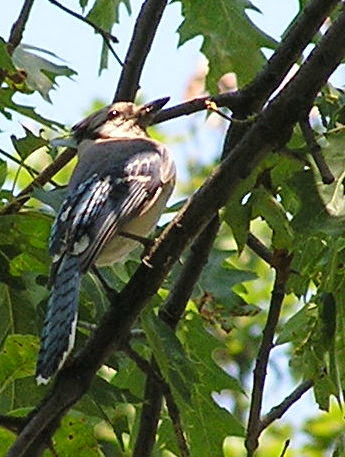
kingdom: Animalia
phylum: Chordata
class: Aves
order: Passeriformes
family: Corvidae
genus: Cyanocitta
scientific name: Cyanocitta cristata
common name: Blue jay
